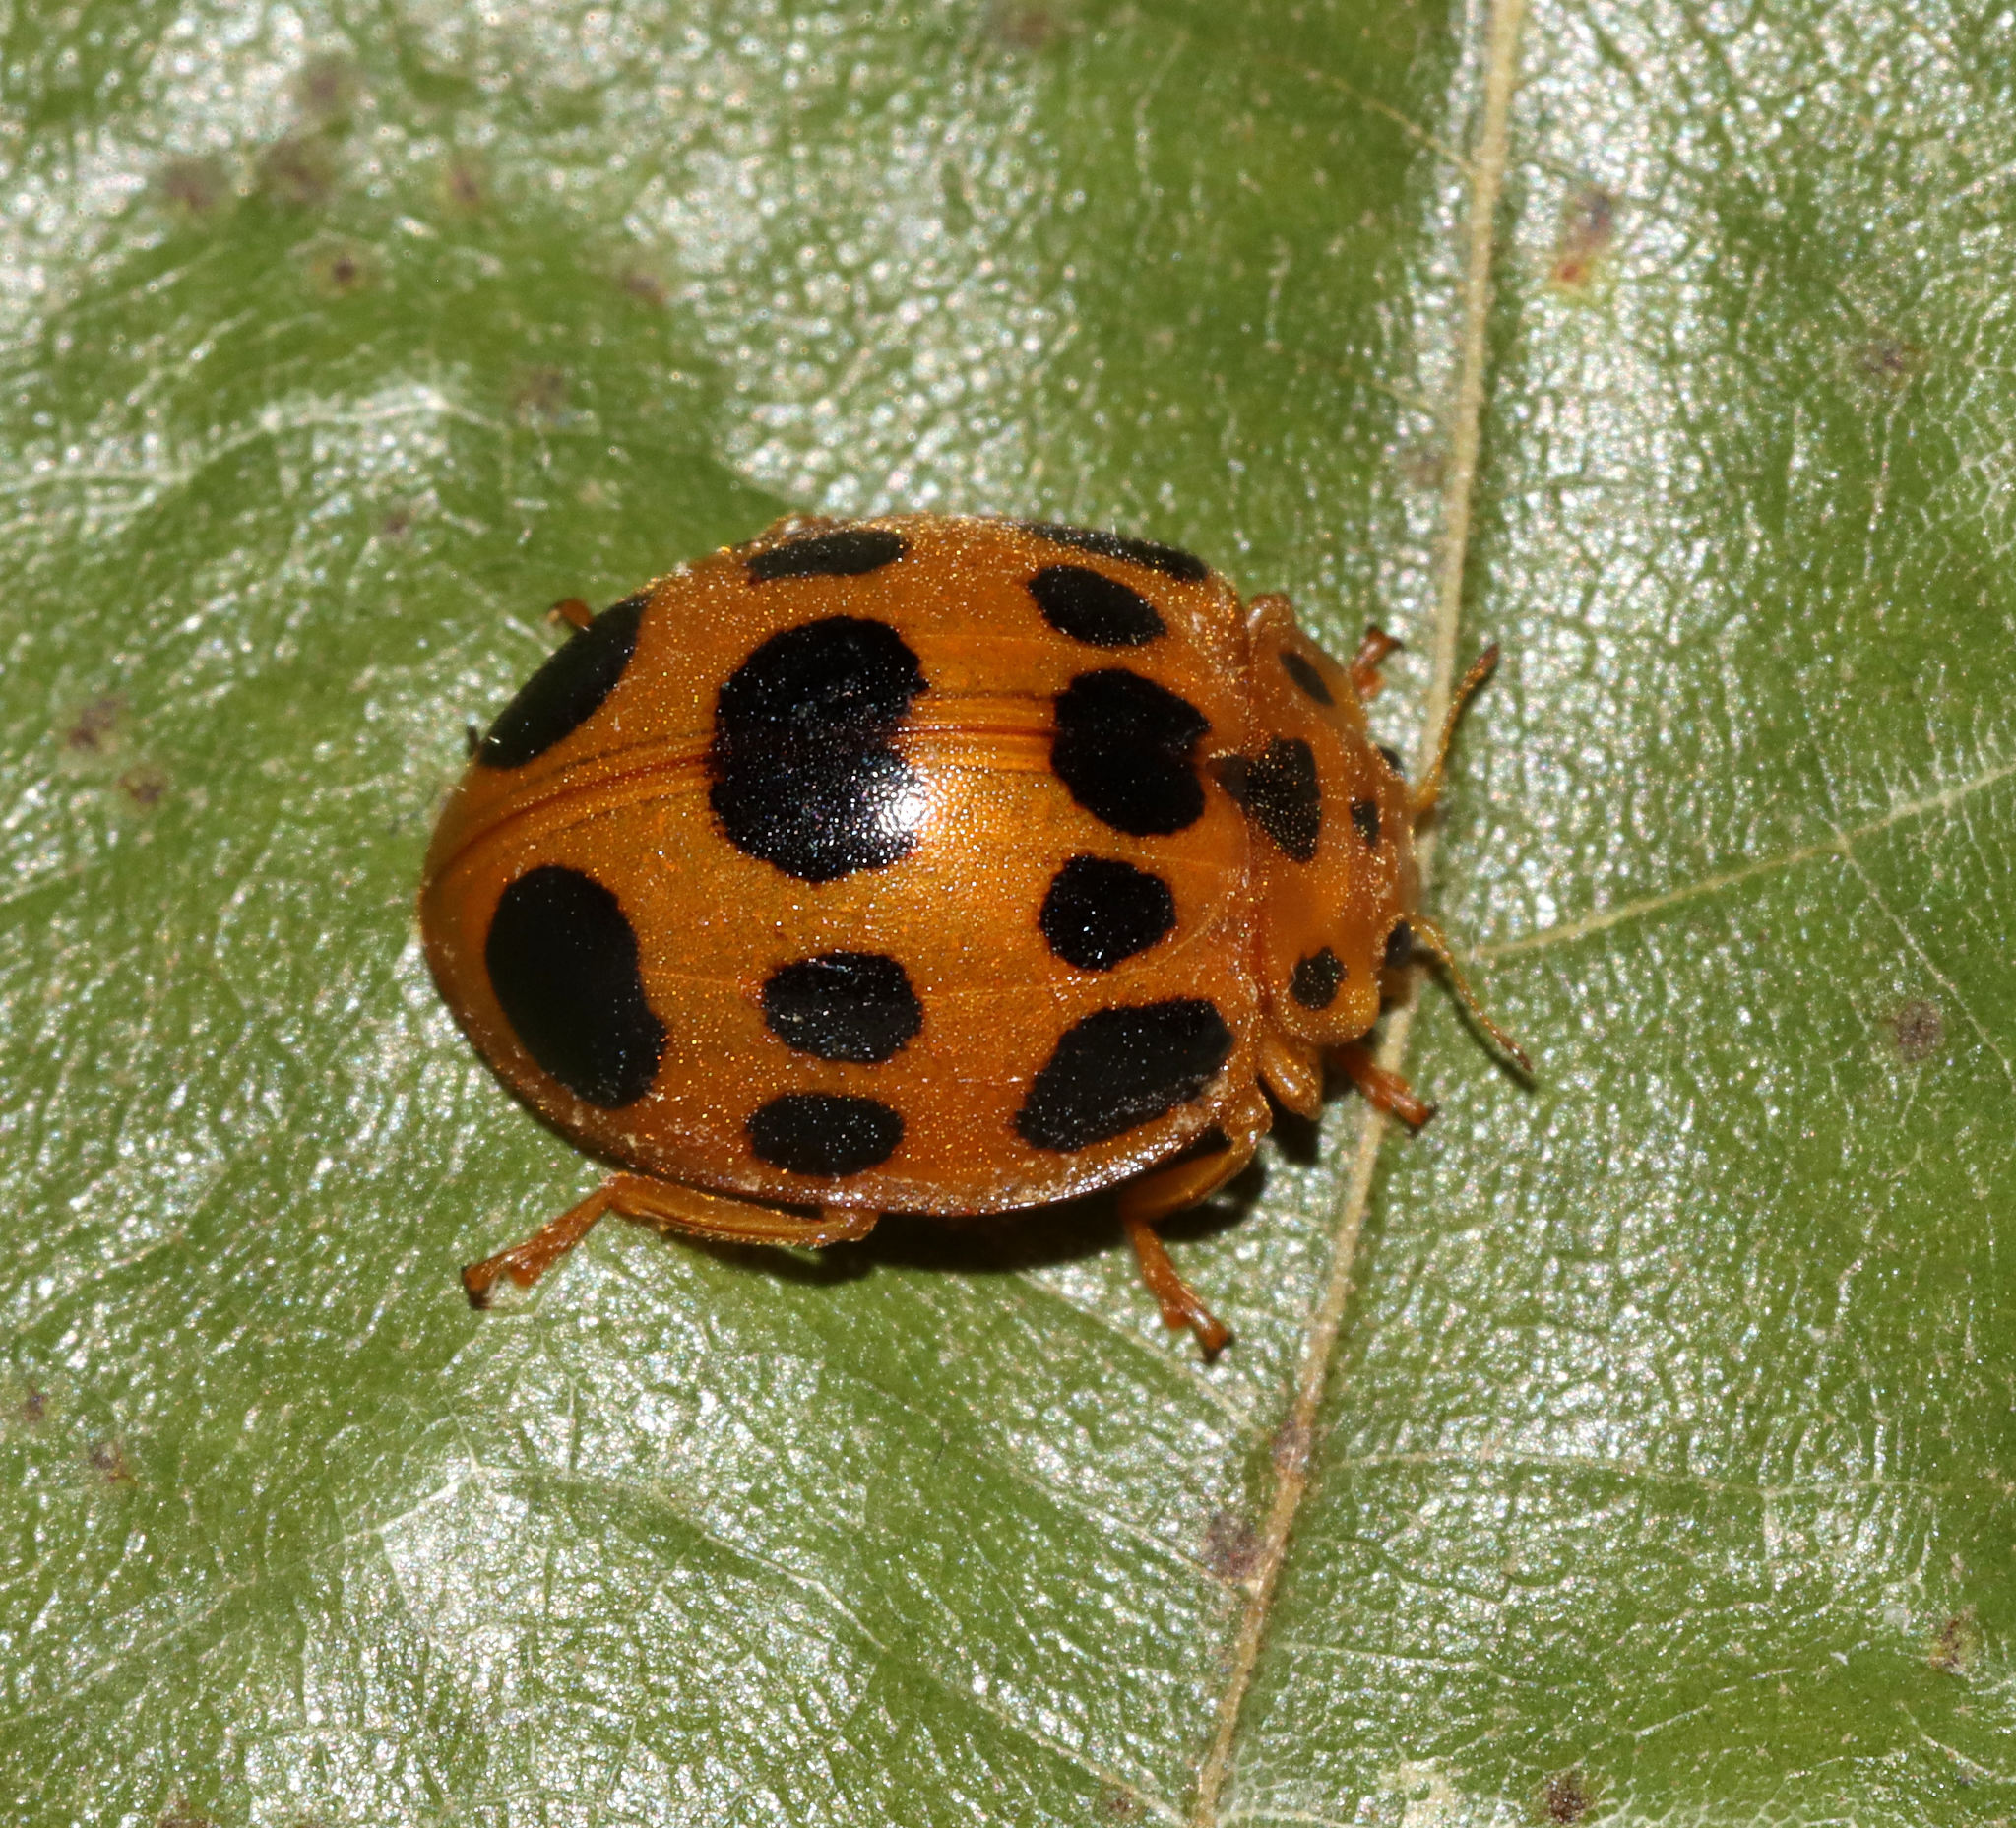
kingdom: Animalia
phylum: Arthropoda
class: Insecta
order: Coleoptera
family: Coccinellidae
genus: Epilachna
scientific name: Epilachna borealis
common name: Squash beetle
